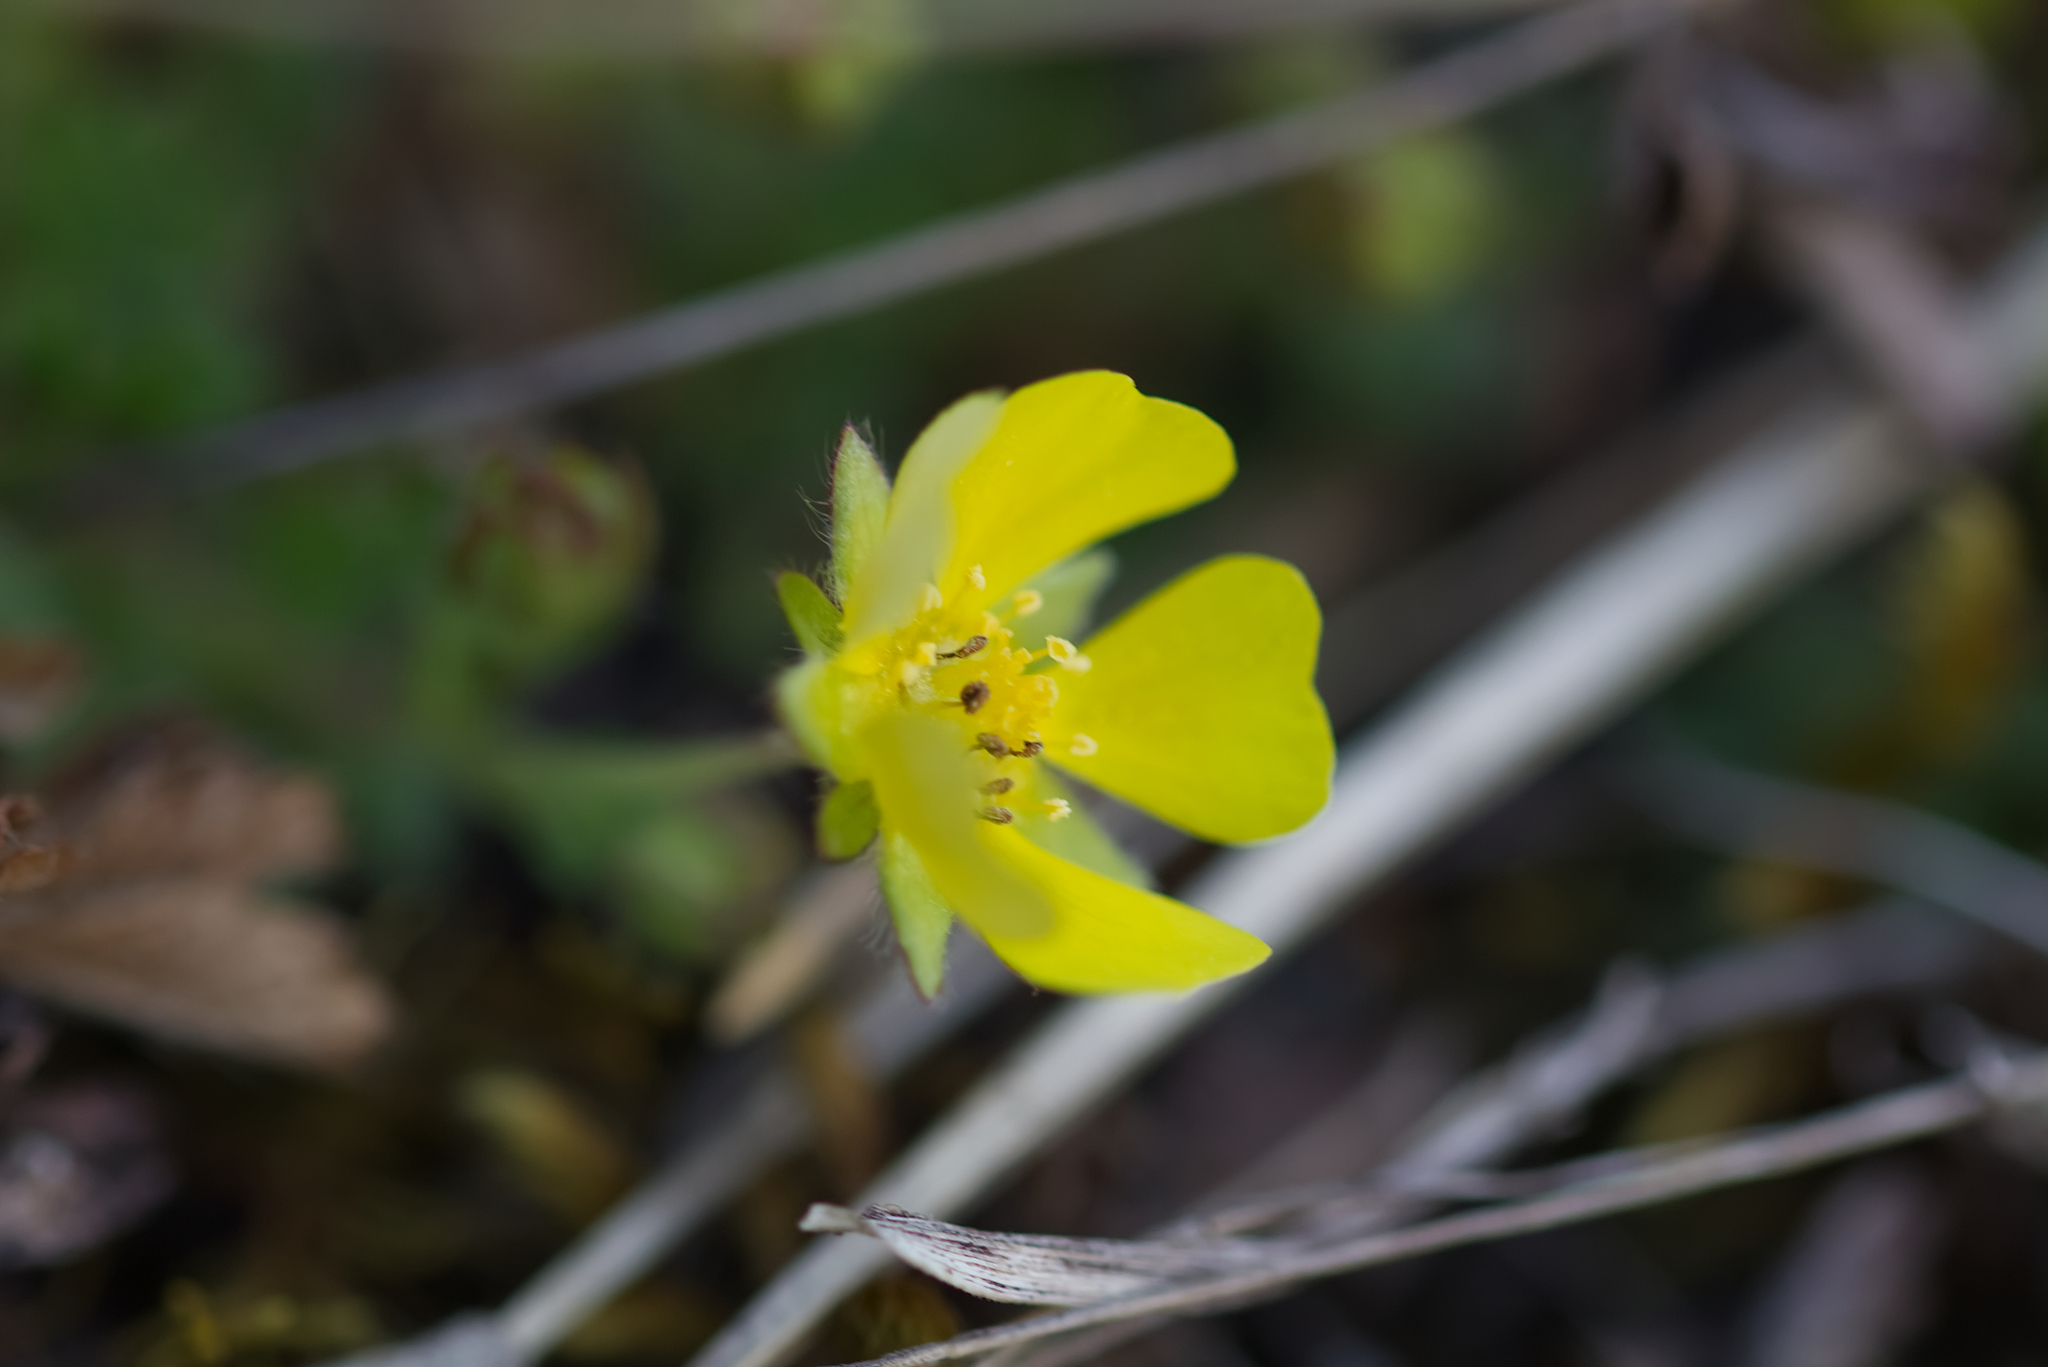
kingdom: Plantae
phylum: Tracheophyta
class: Magnoliopsida
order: Rosales
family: Rosaceae
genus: Potentilla
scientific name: Potentilla verna
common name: Spring cinquefoil
